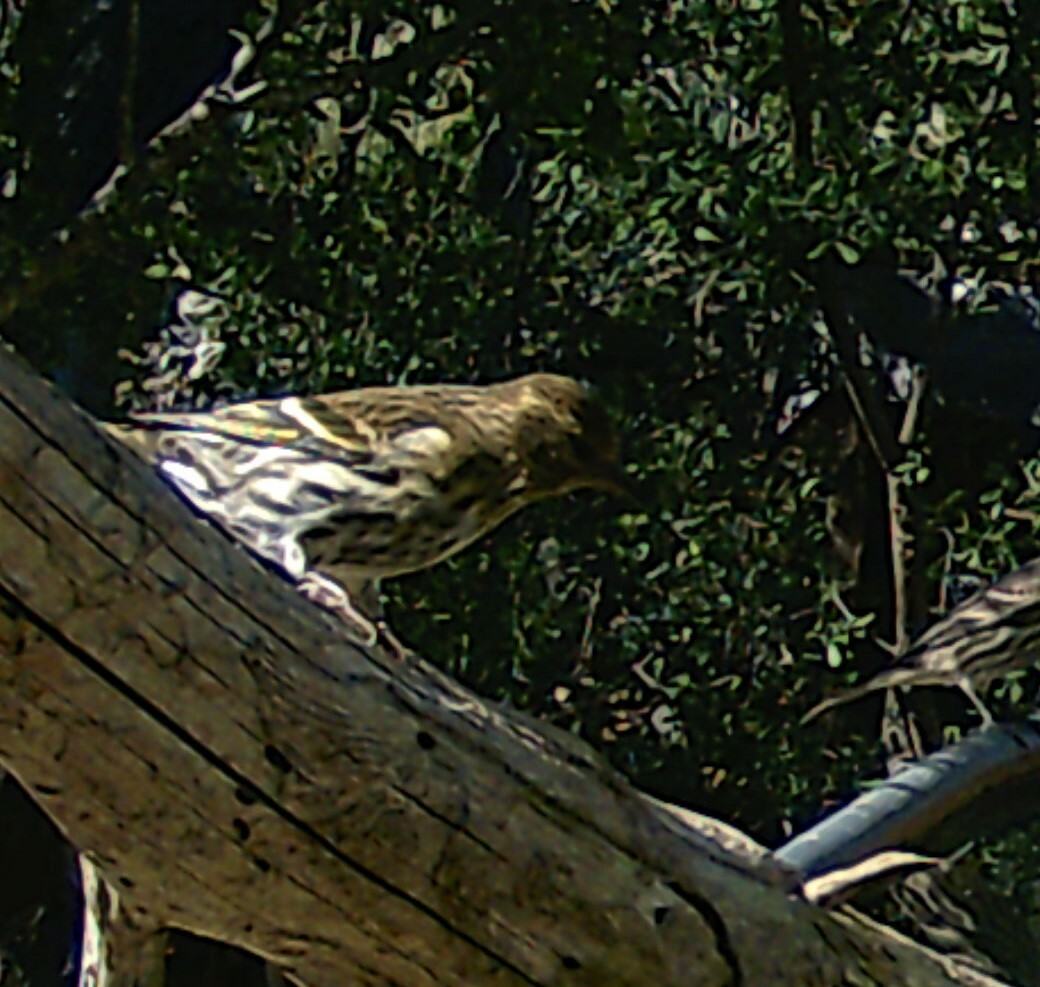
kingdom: Animalia
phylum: Chordata
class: Aves
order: Passeriformes
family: Fringillidae
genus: Spinus
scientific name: Spinus pinus
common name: Pine siskin
